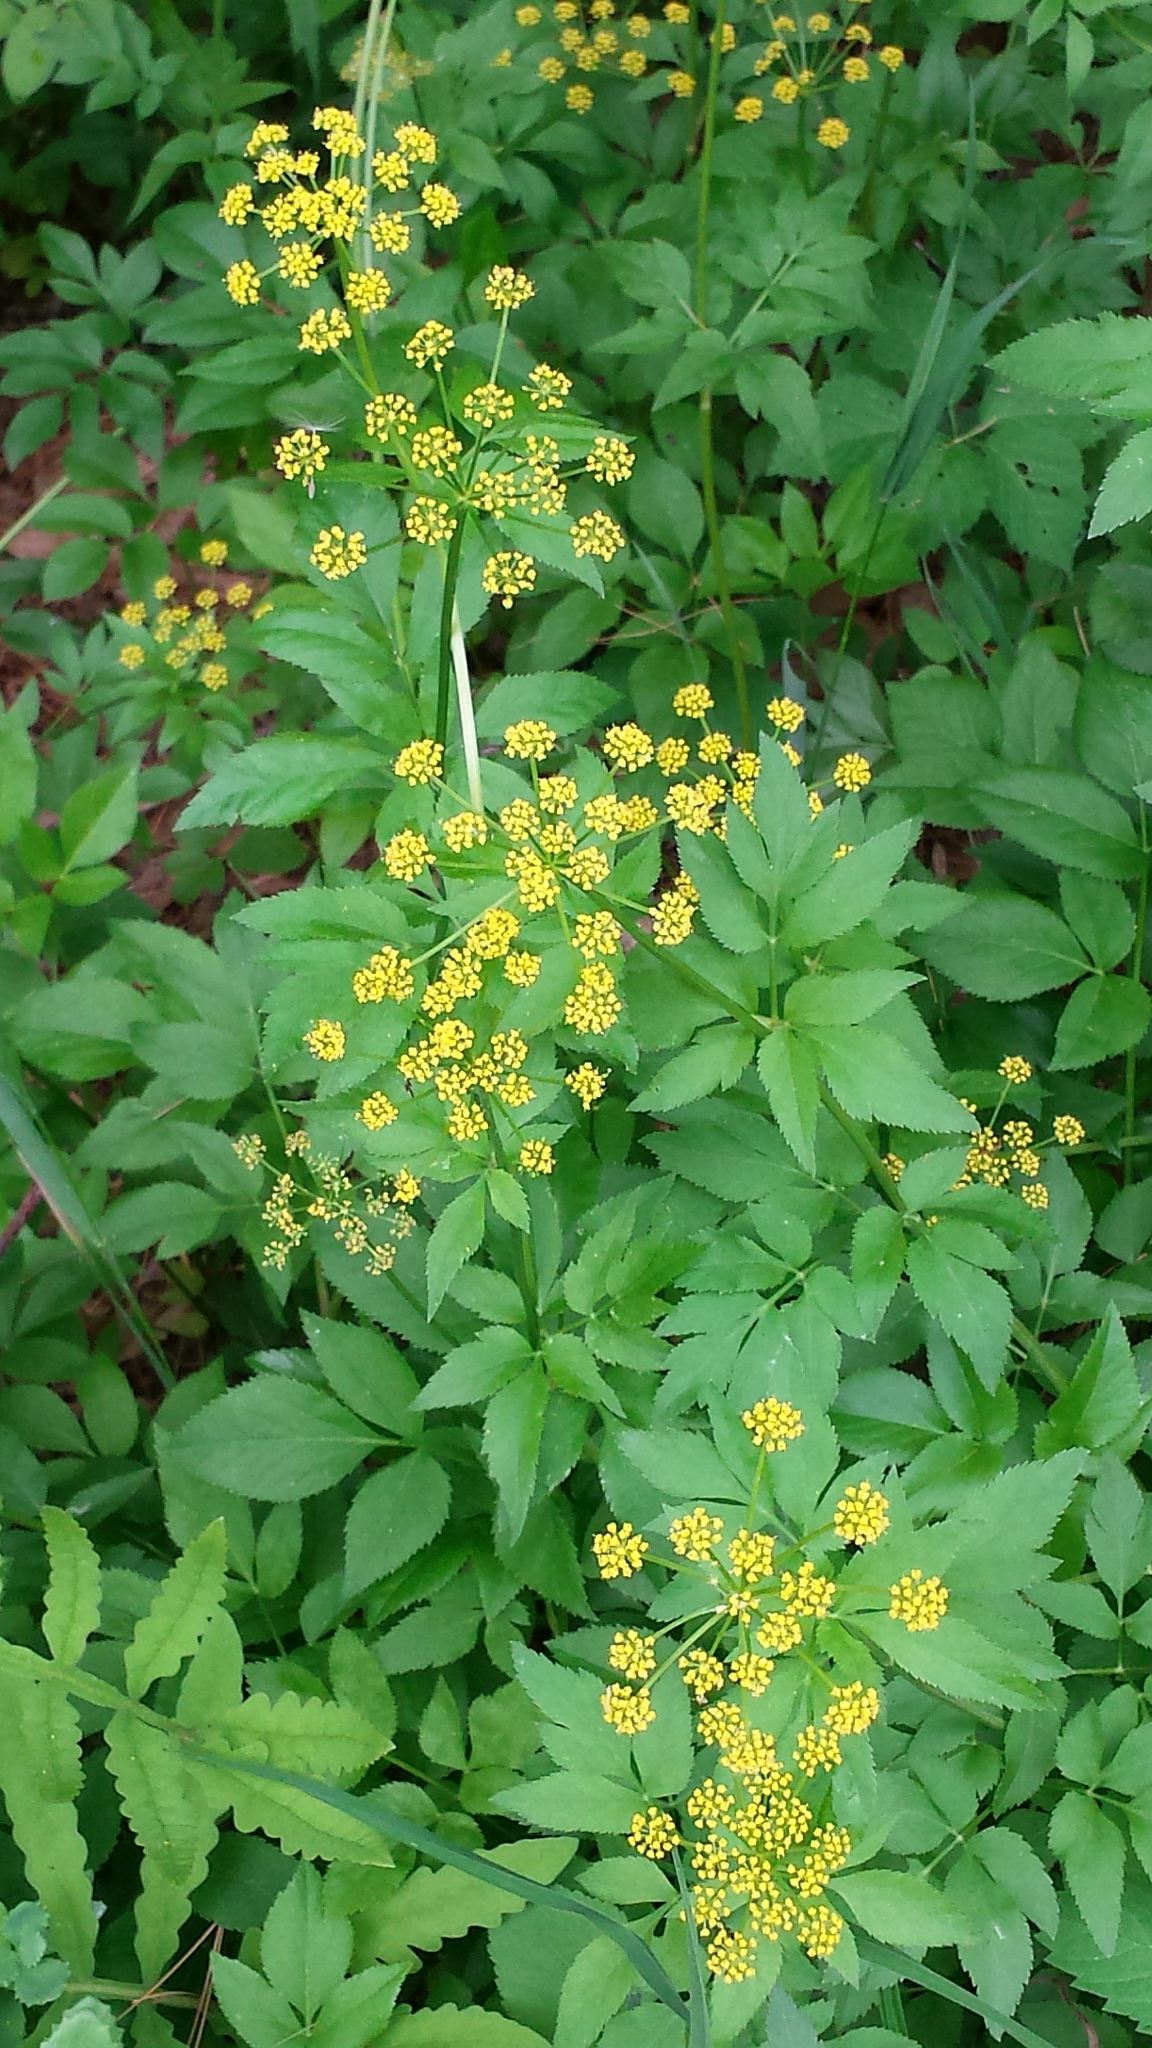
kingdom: Plantae
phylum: Tracheophyta
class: Magnoliopsida
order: Apiales
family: Apiaceae
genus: Zizia
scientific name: Zizia aurea
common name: Golden alexanders
